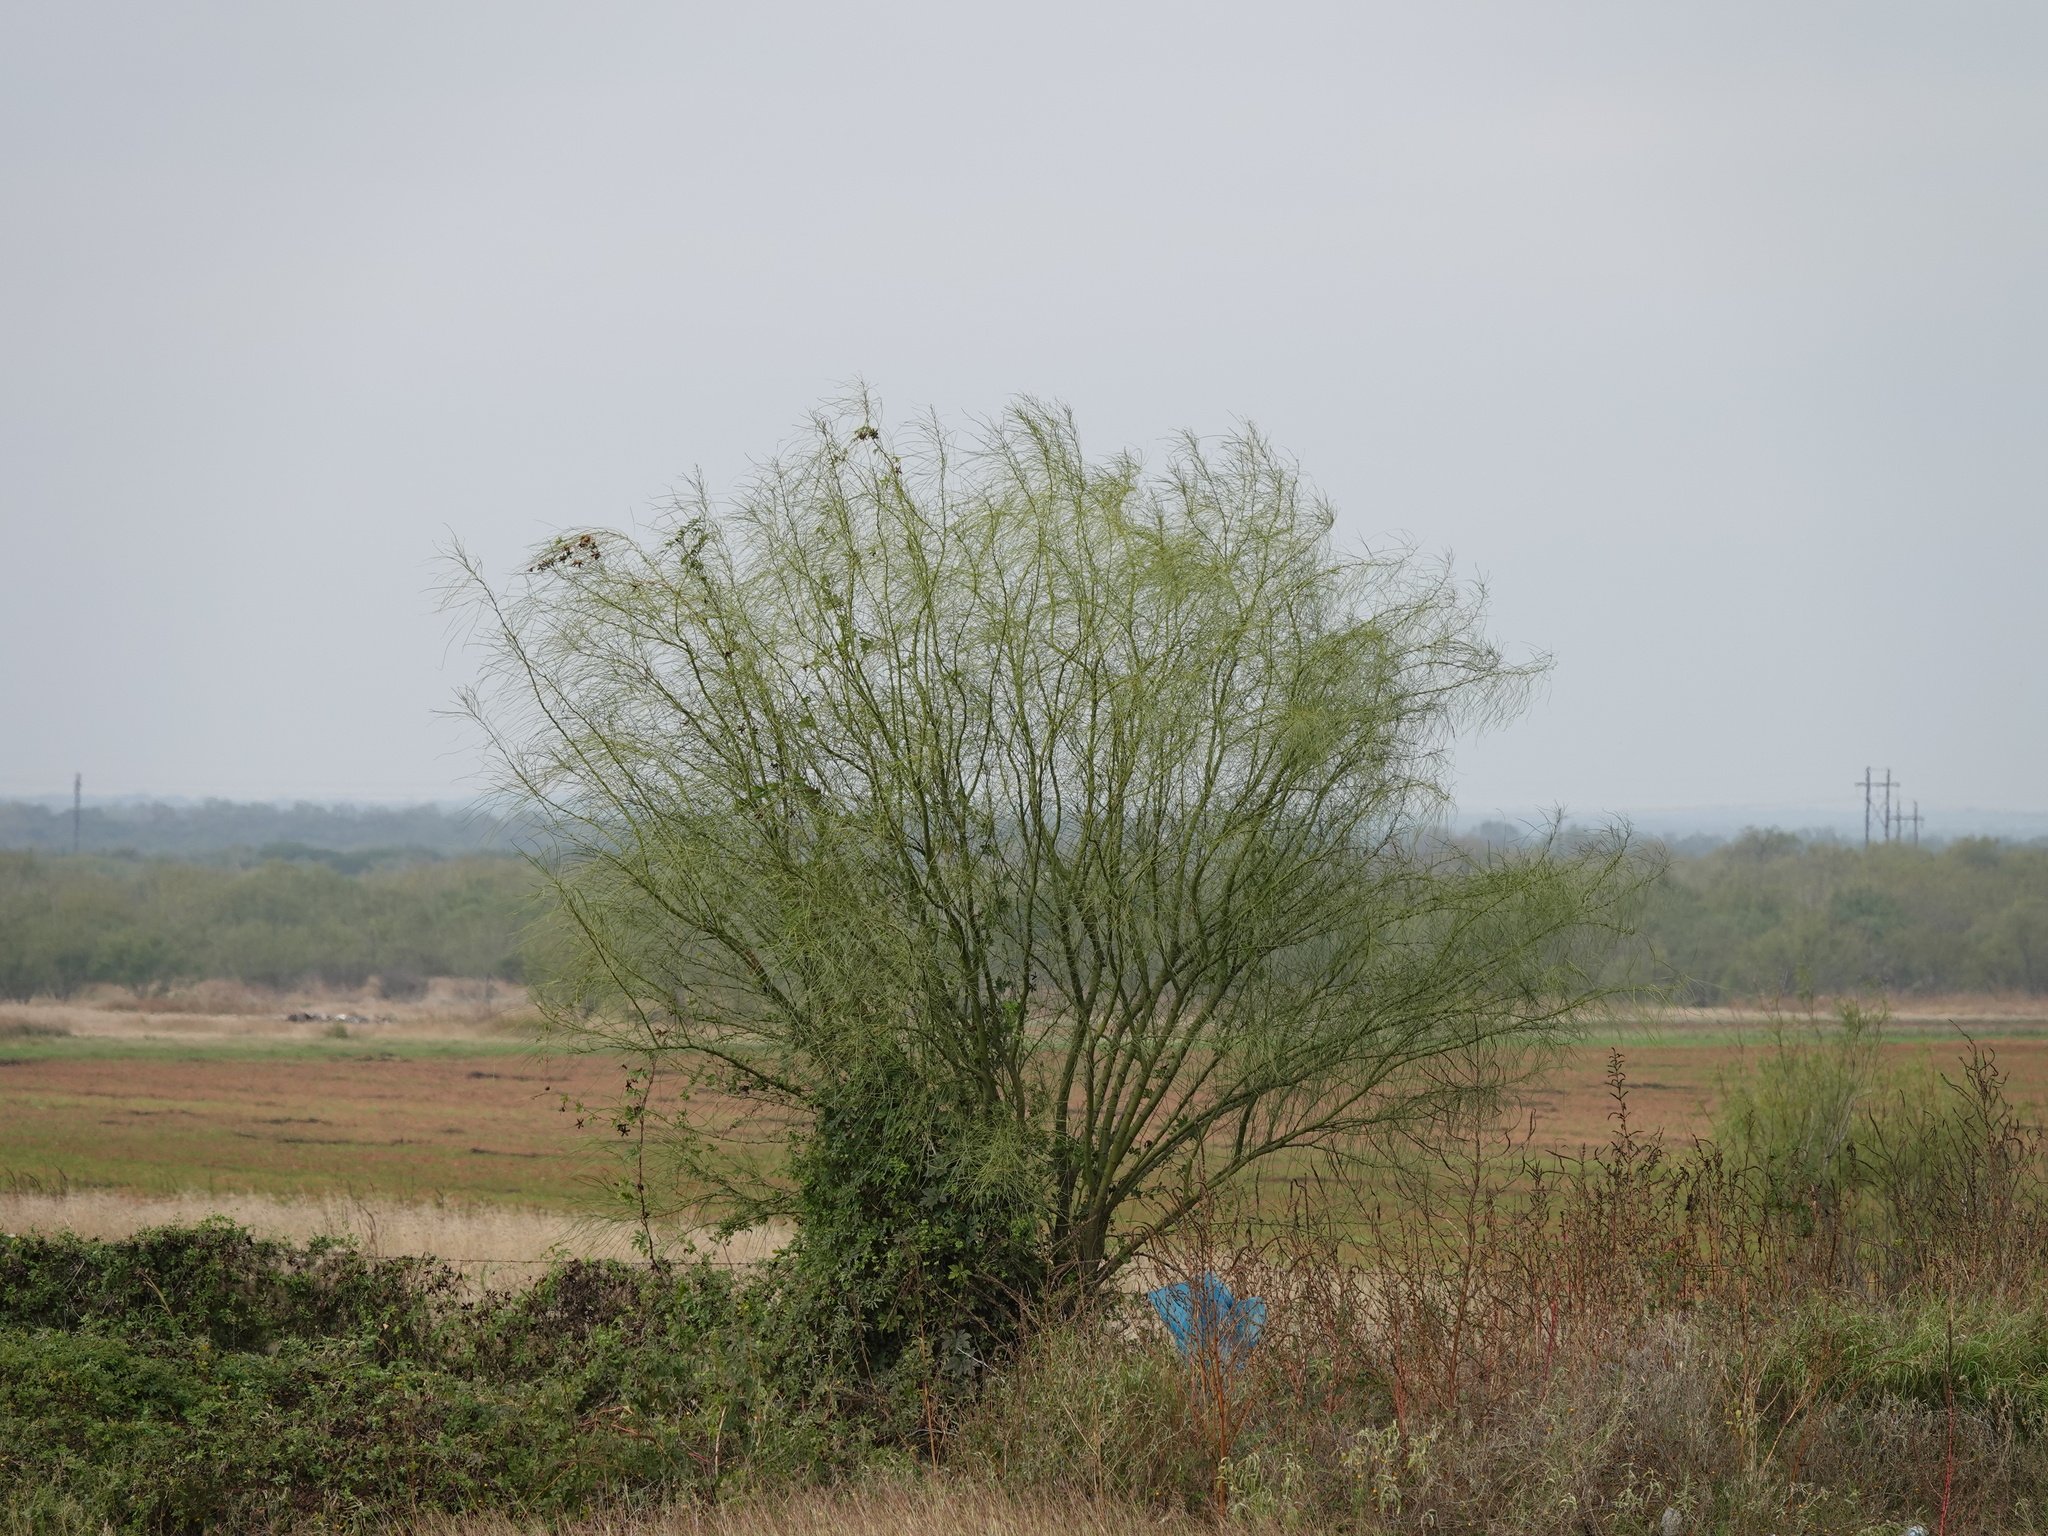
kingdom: Plantae
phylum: Tracheophyta
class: Magnoliopsida
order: Fabales
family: Fabaceae
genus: Parkinsonia
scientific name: Parkinsonia aculeata
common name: Jerusalem thorn
